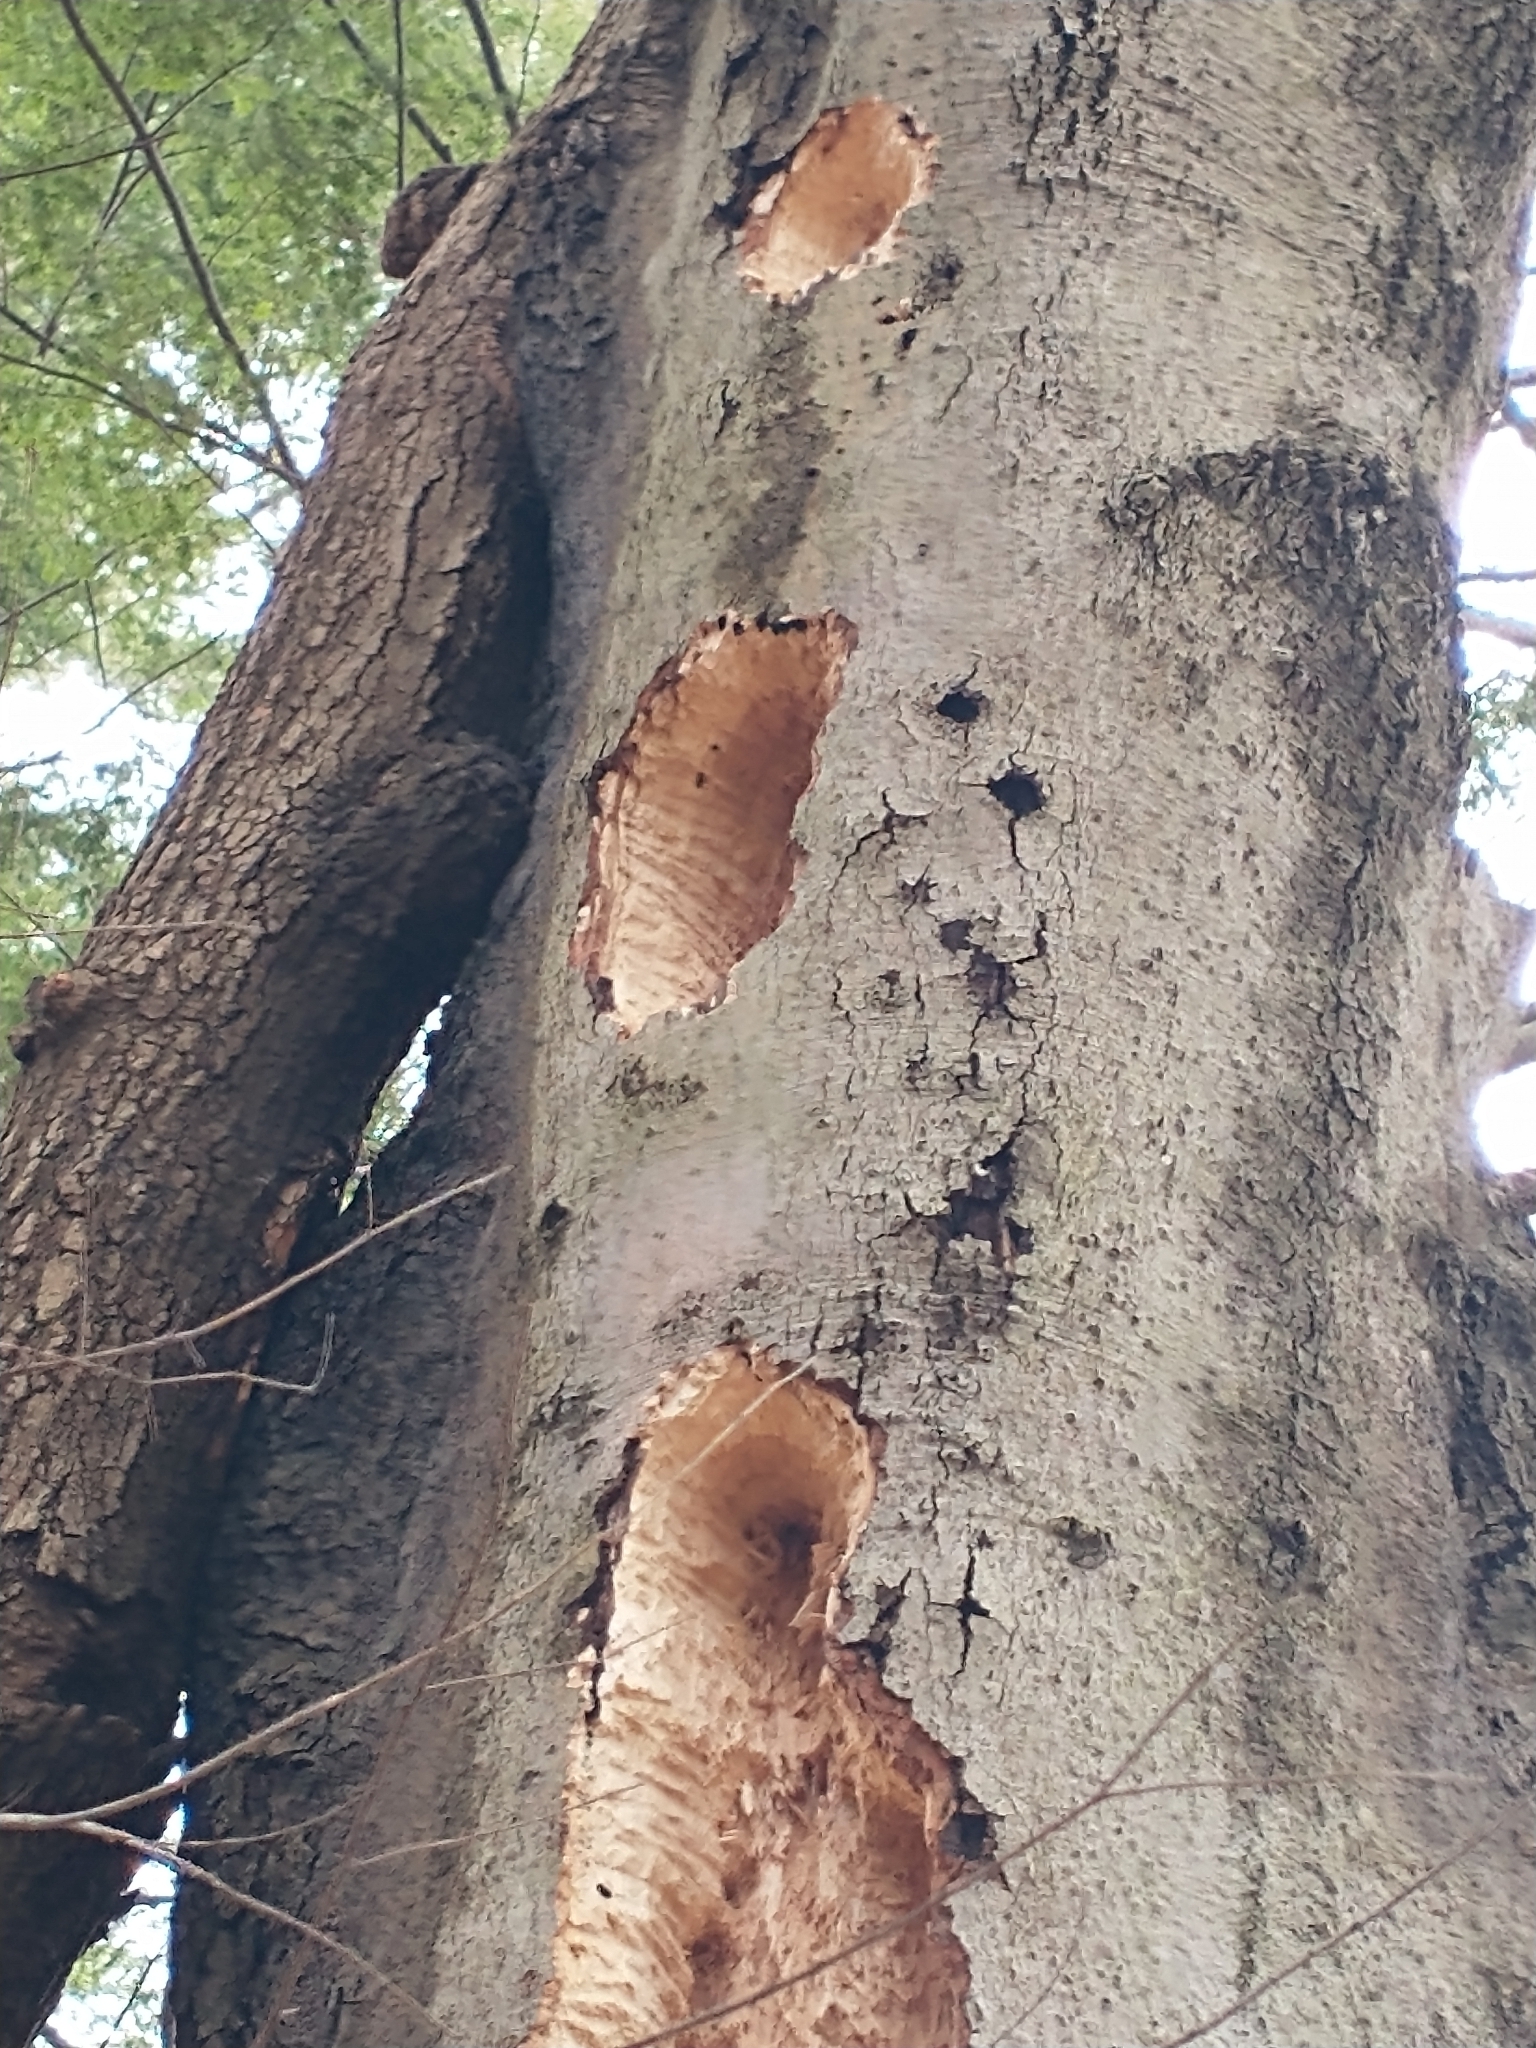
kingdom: Animalia
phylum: Chordata
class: Aves
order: Piciformes
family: Picidae
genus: Dryocopus
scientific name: Dryocopus pileatus
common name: Pileated woodpecker
